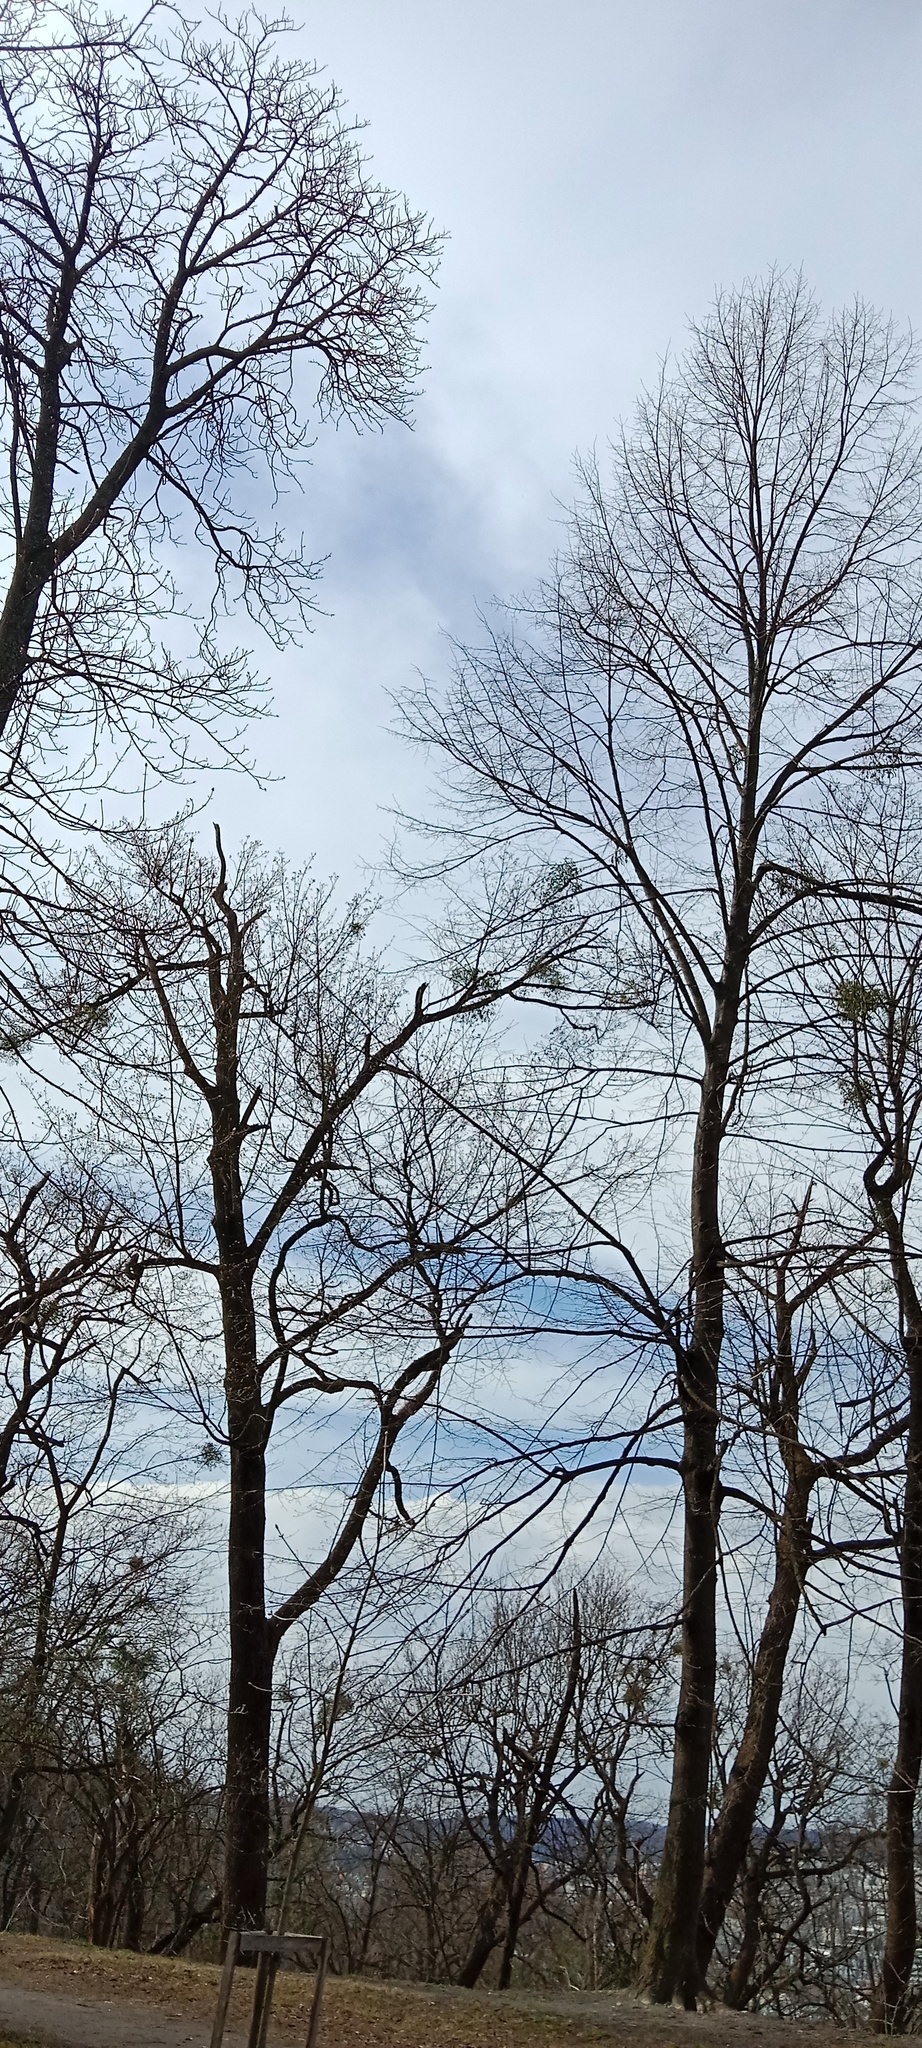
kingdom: Plantae
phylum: Tracheophyta
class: Magnoliopsida
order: Santalales
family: Viscaceae
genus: Viscum
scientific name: Viscum album
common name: Mistletoe
